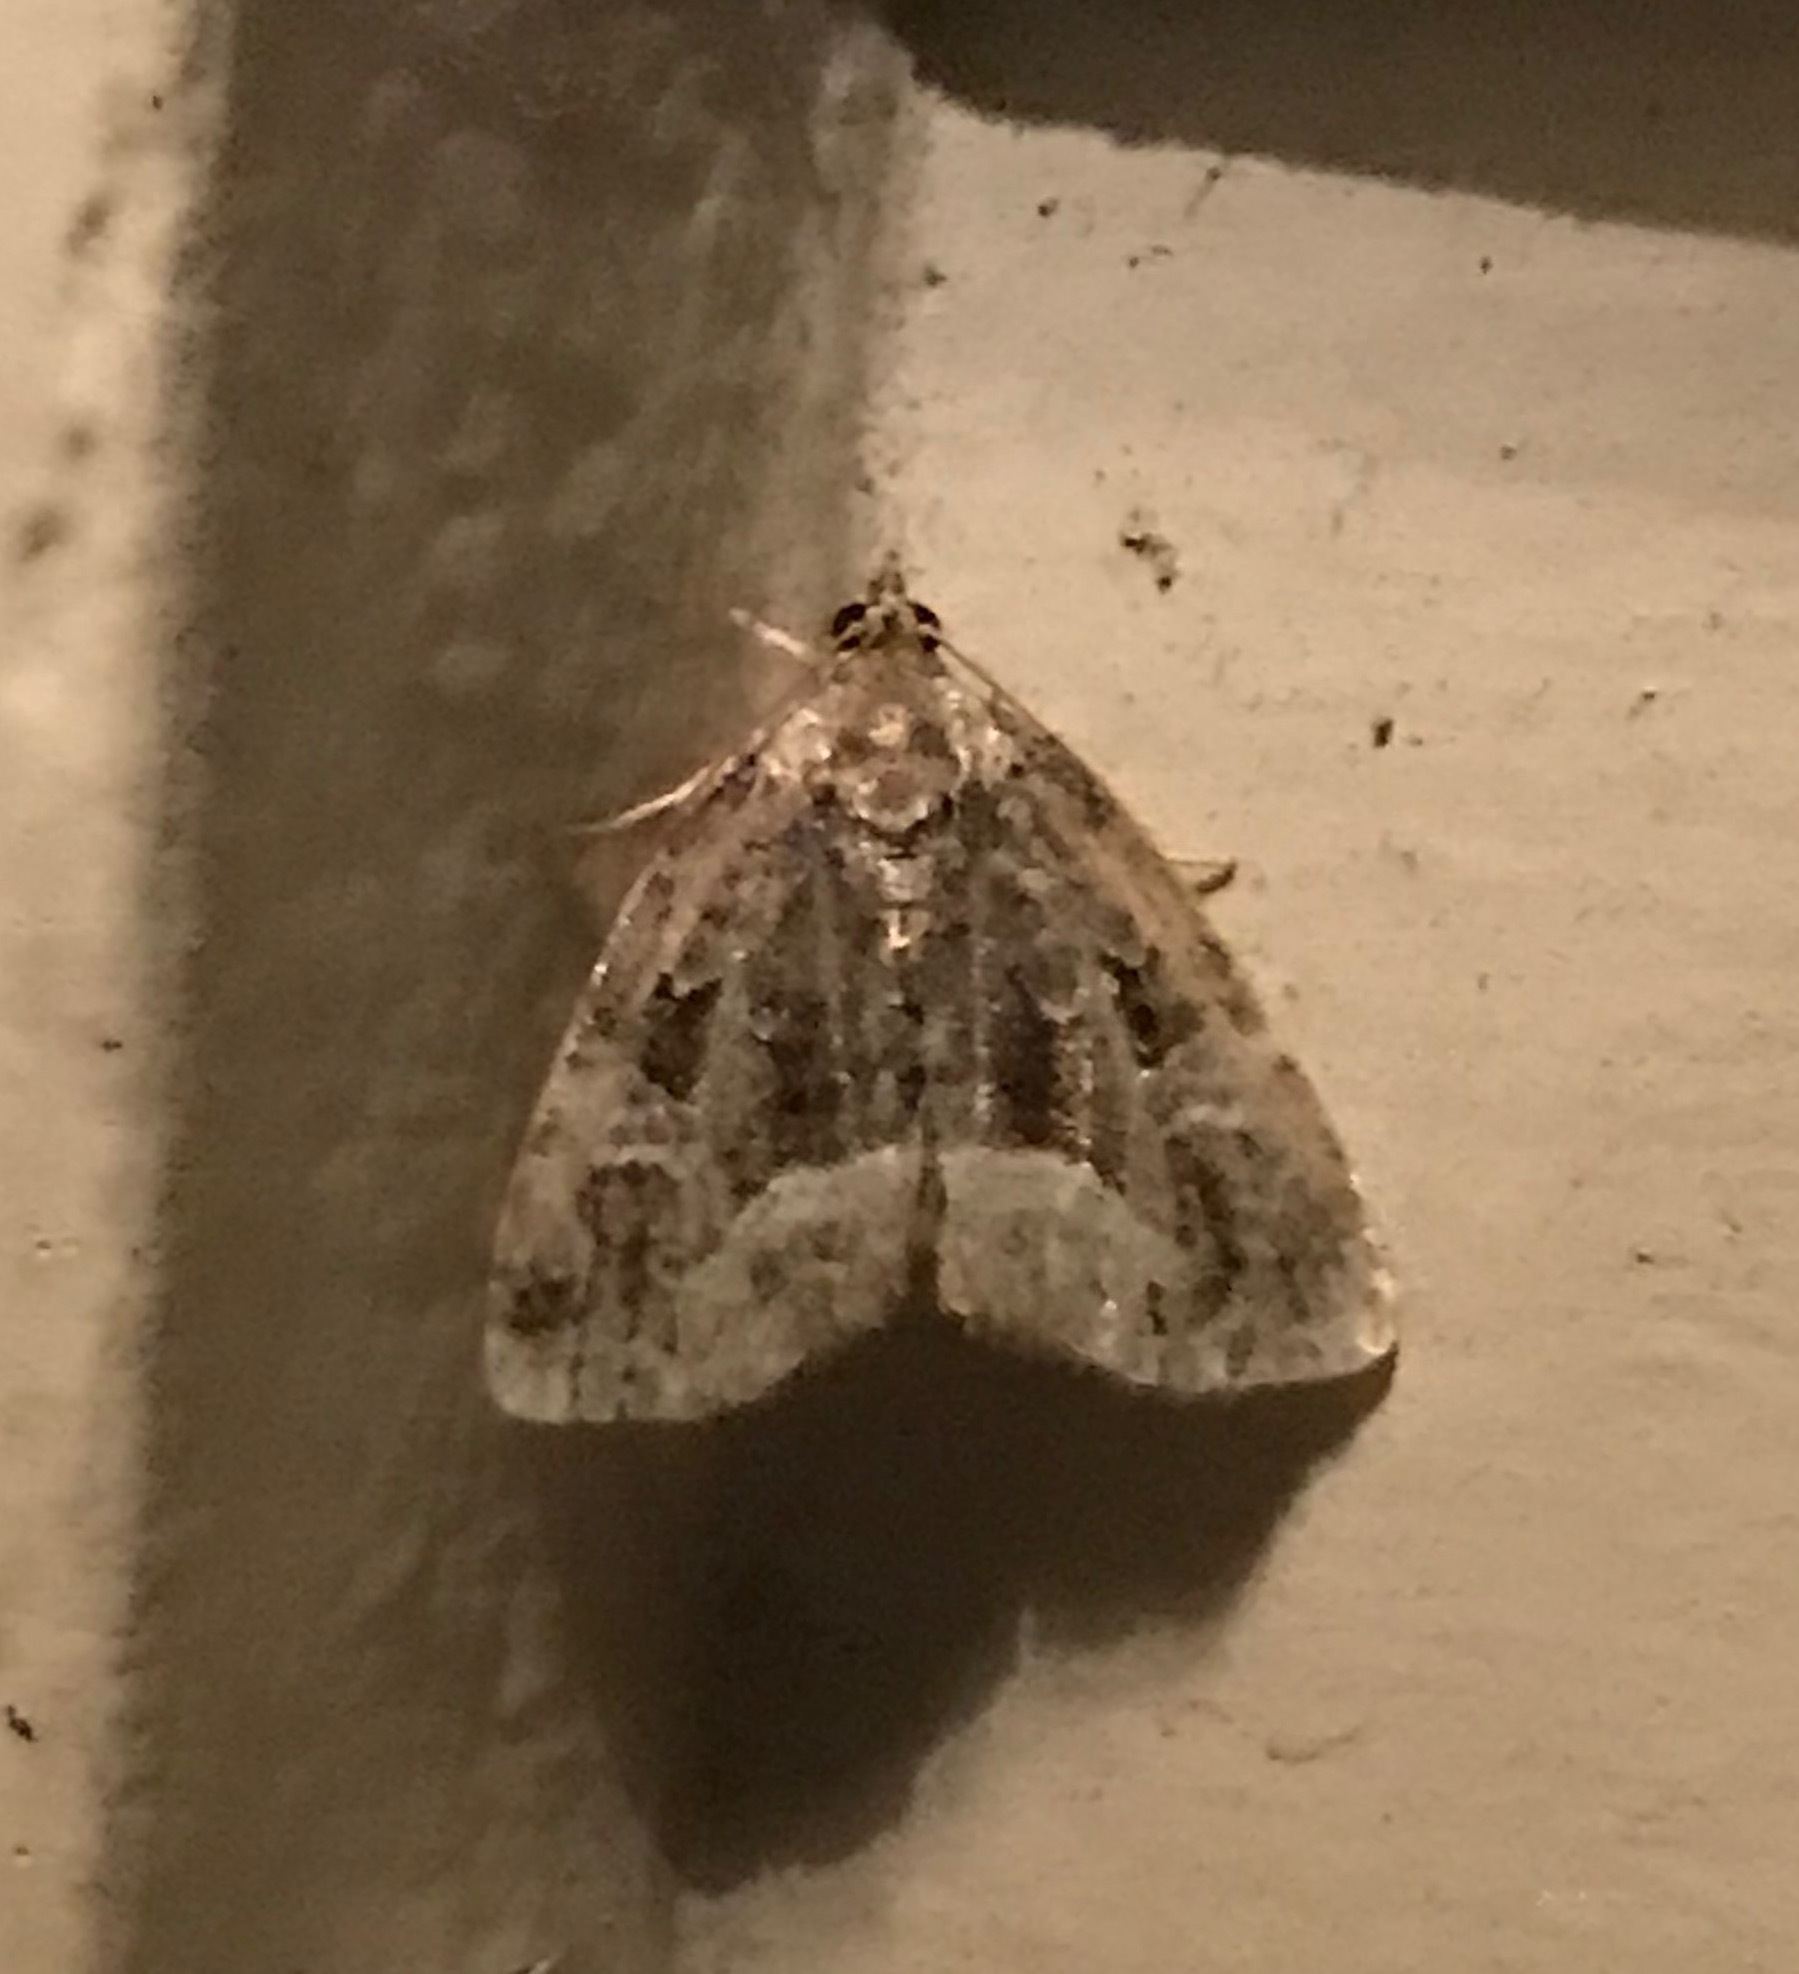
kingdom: Animalia
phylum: Arthropoda
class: Insecta
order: Lepidoptera
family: Noctuidae
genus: Protodeltote
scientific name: Protodeltote muscosula
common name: Large mossy glyph
